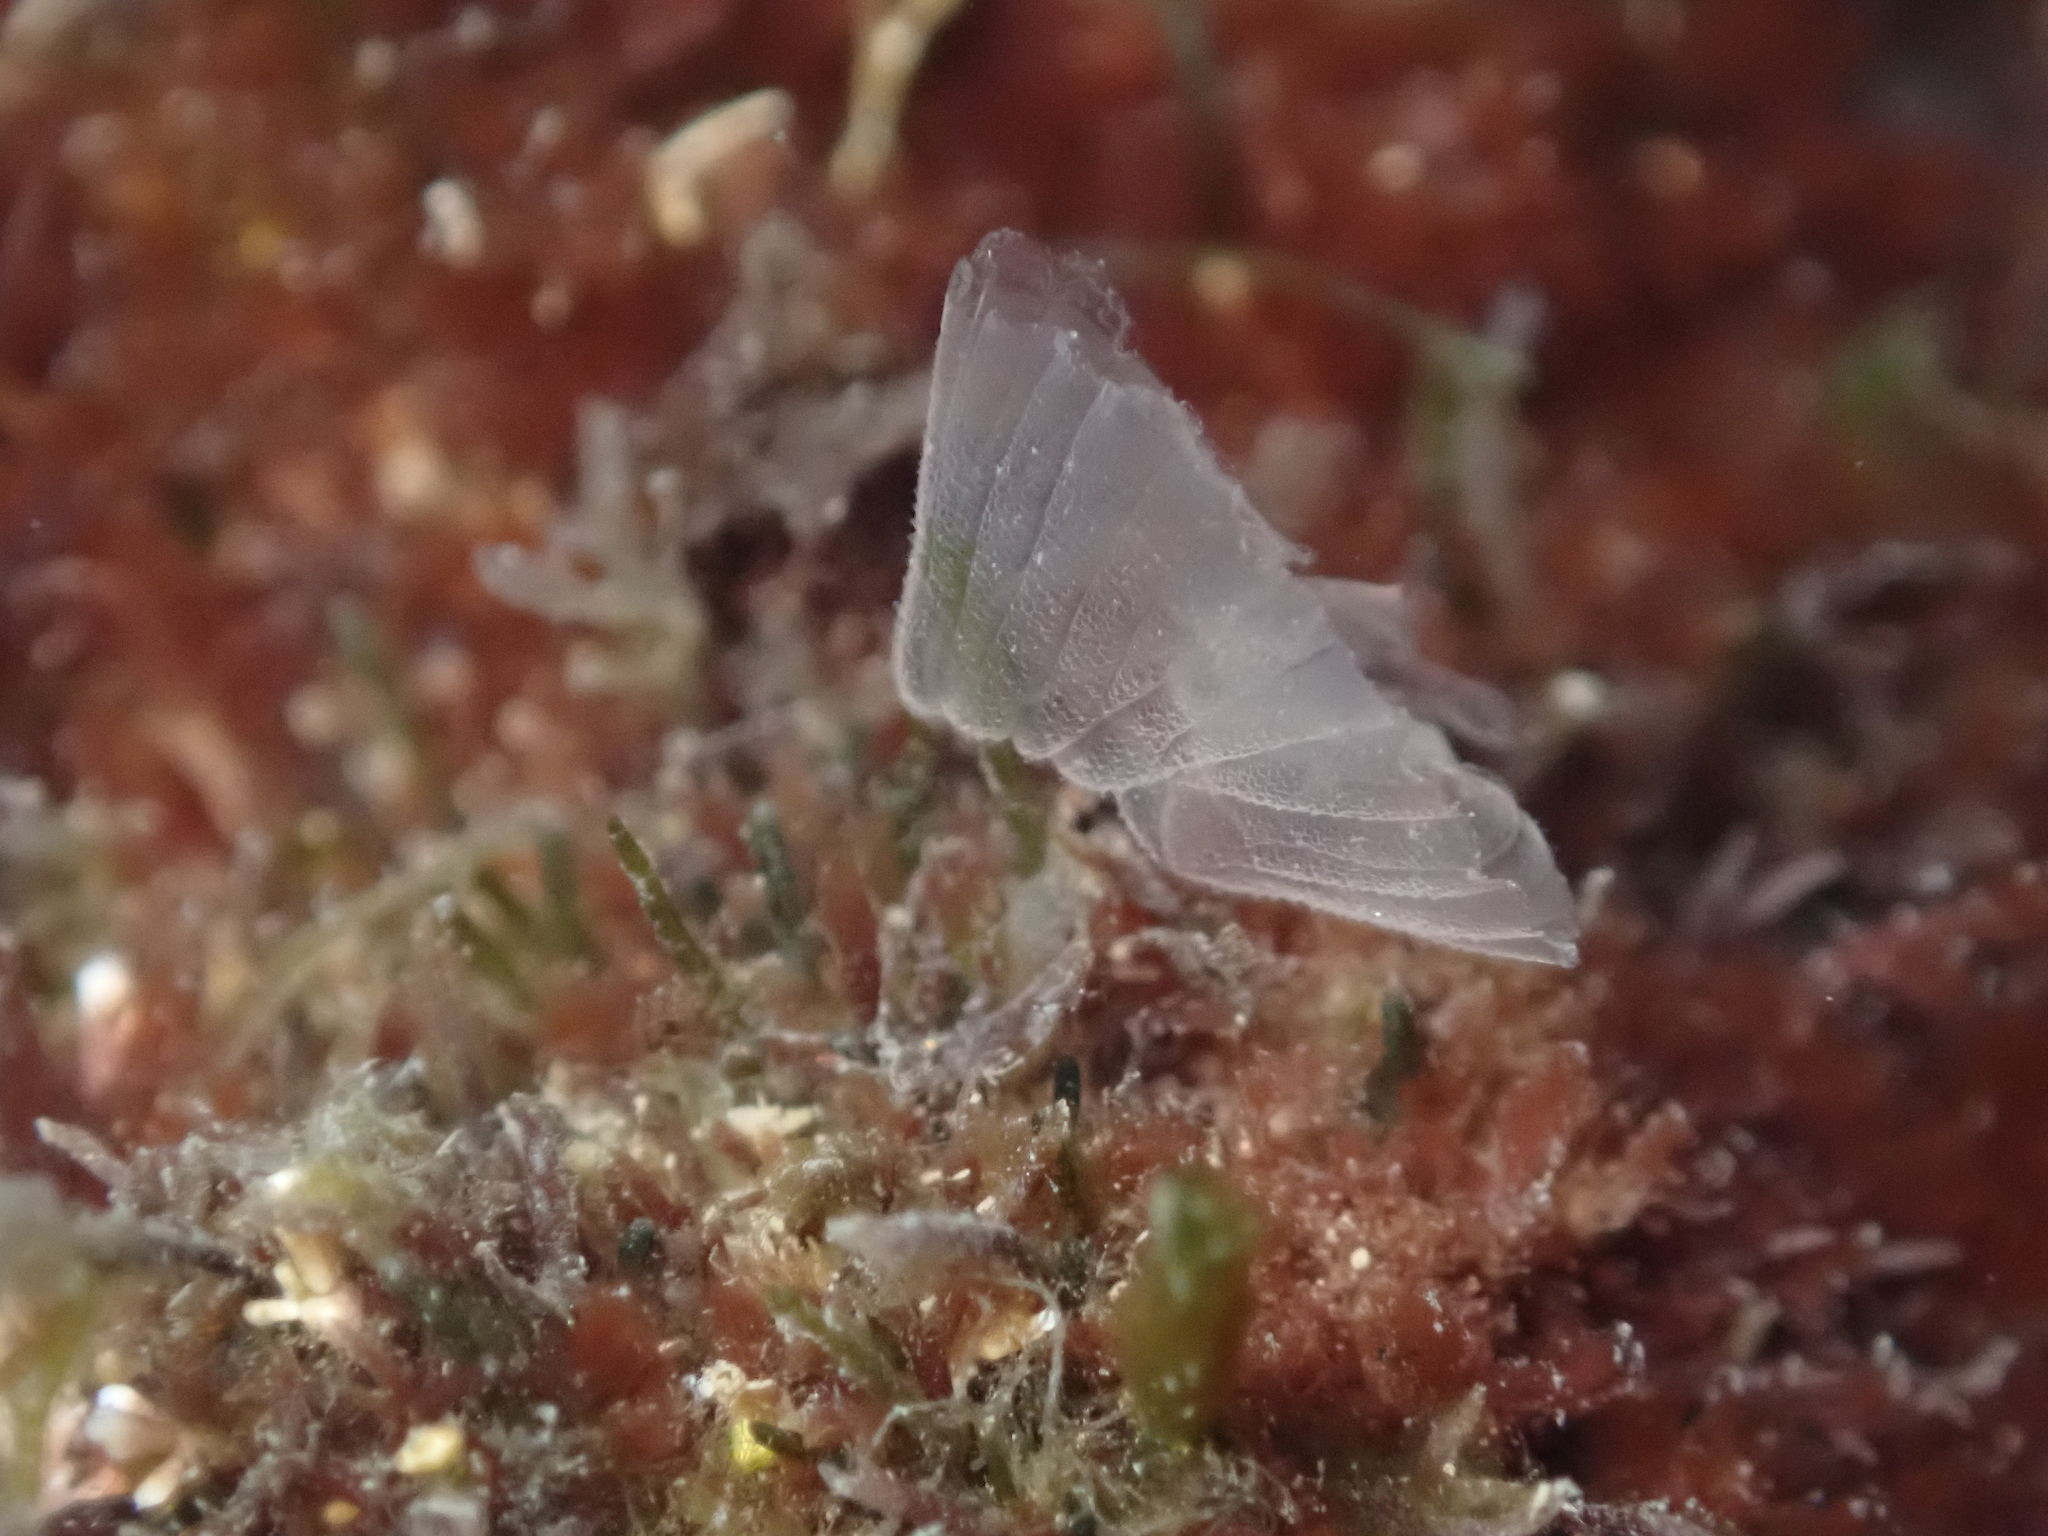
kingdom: Animalia
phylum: Mollusca
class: Cephalopoda
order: Octopoda
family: Octopodidae
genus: Octopus
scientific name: Octopus vulgaris
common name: Common octopus
